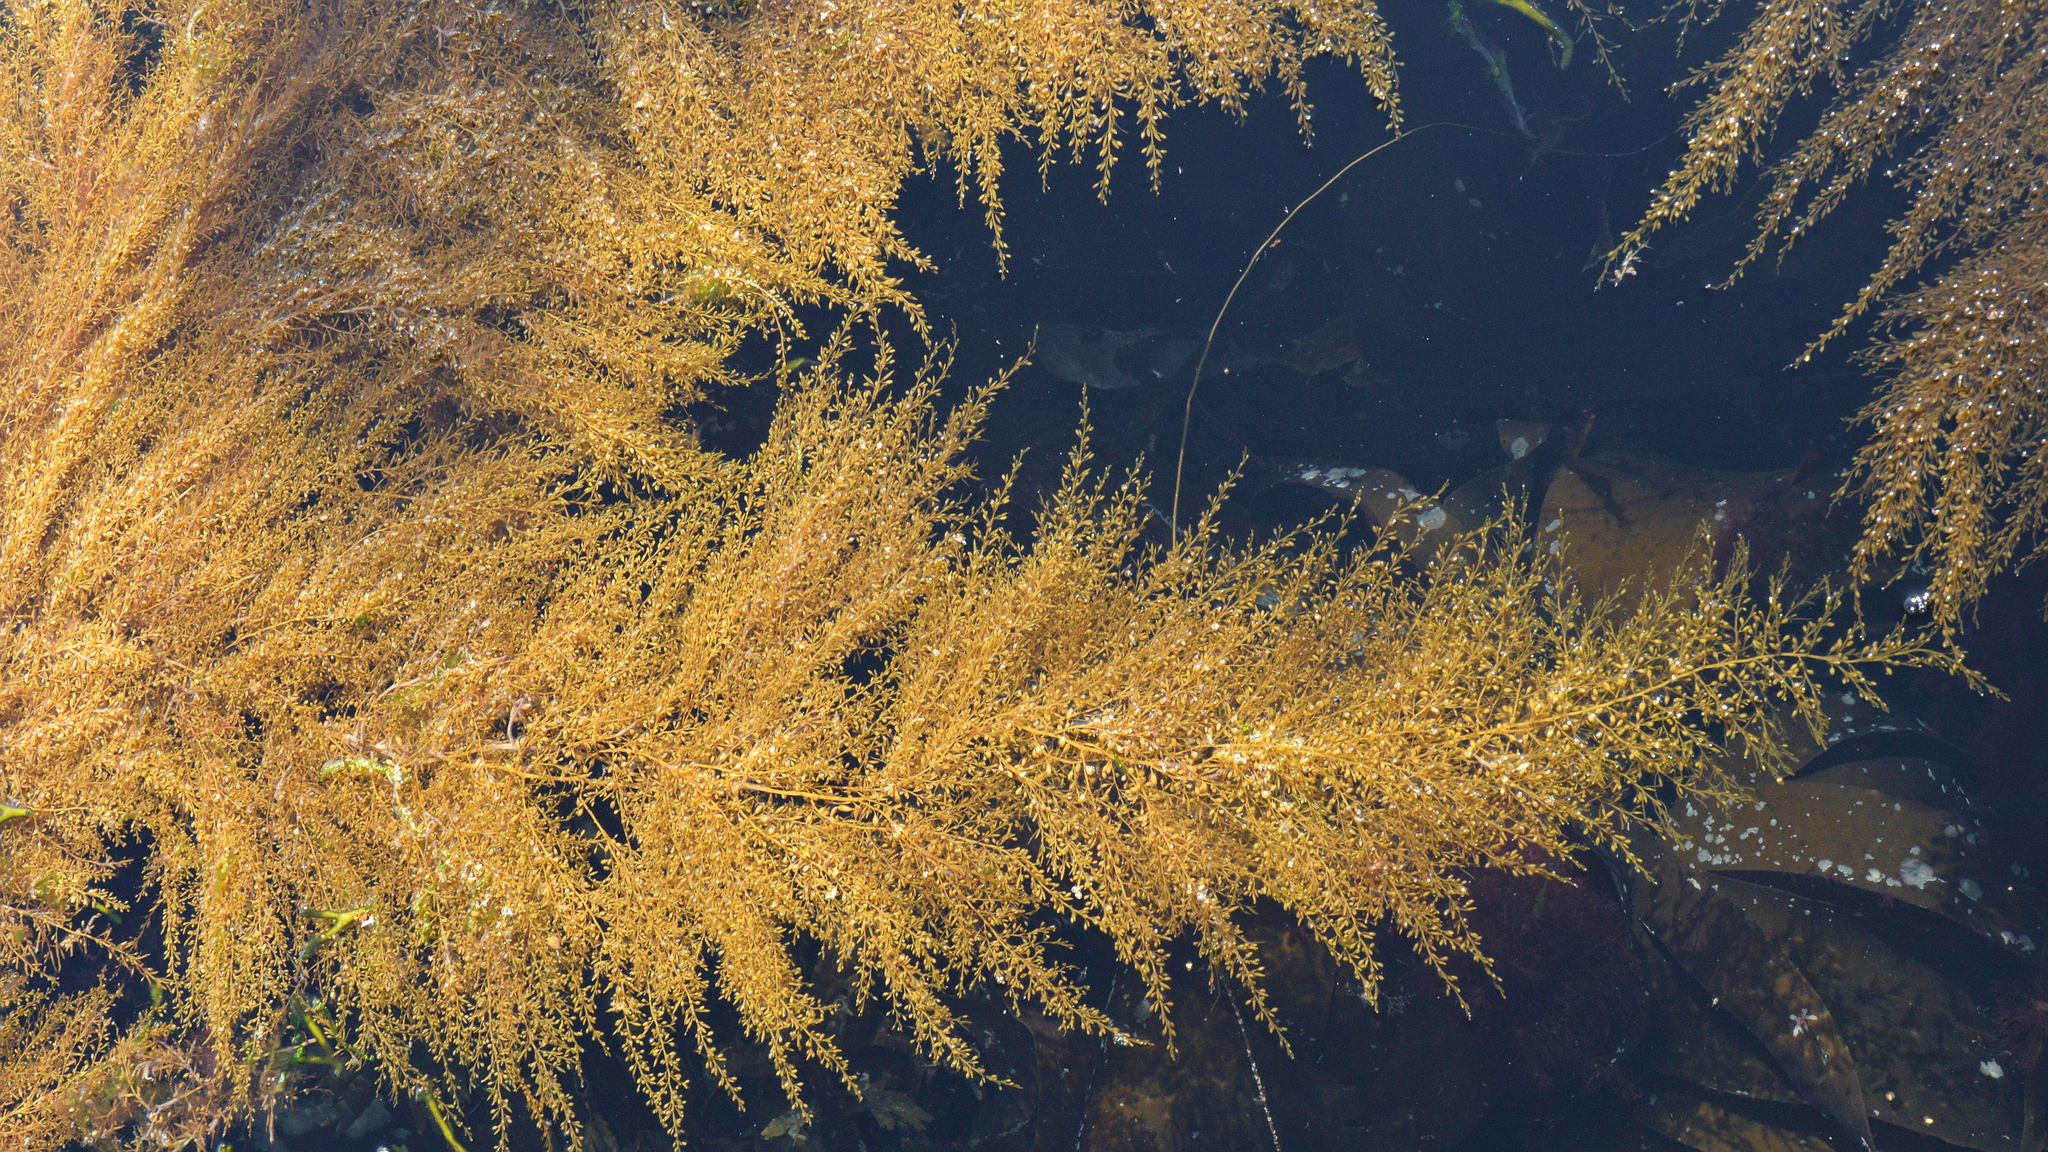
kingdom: Chromista
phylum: Ochrophyta
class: Phaeophyceae
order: Fucales
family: Sargassaceae
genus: Sargassum
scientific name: Sargassum muticum
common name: Japweed
